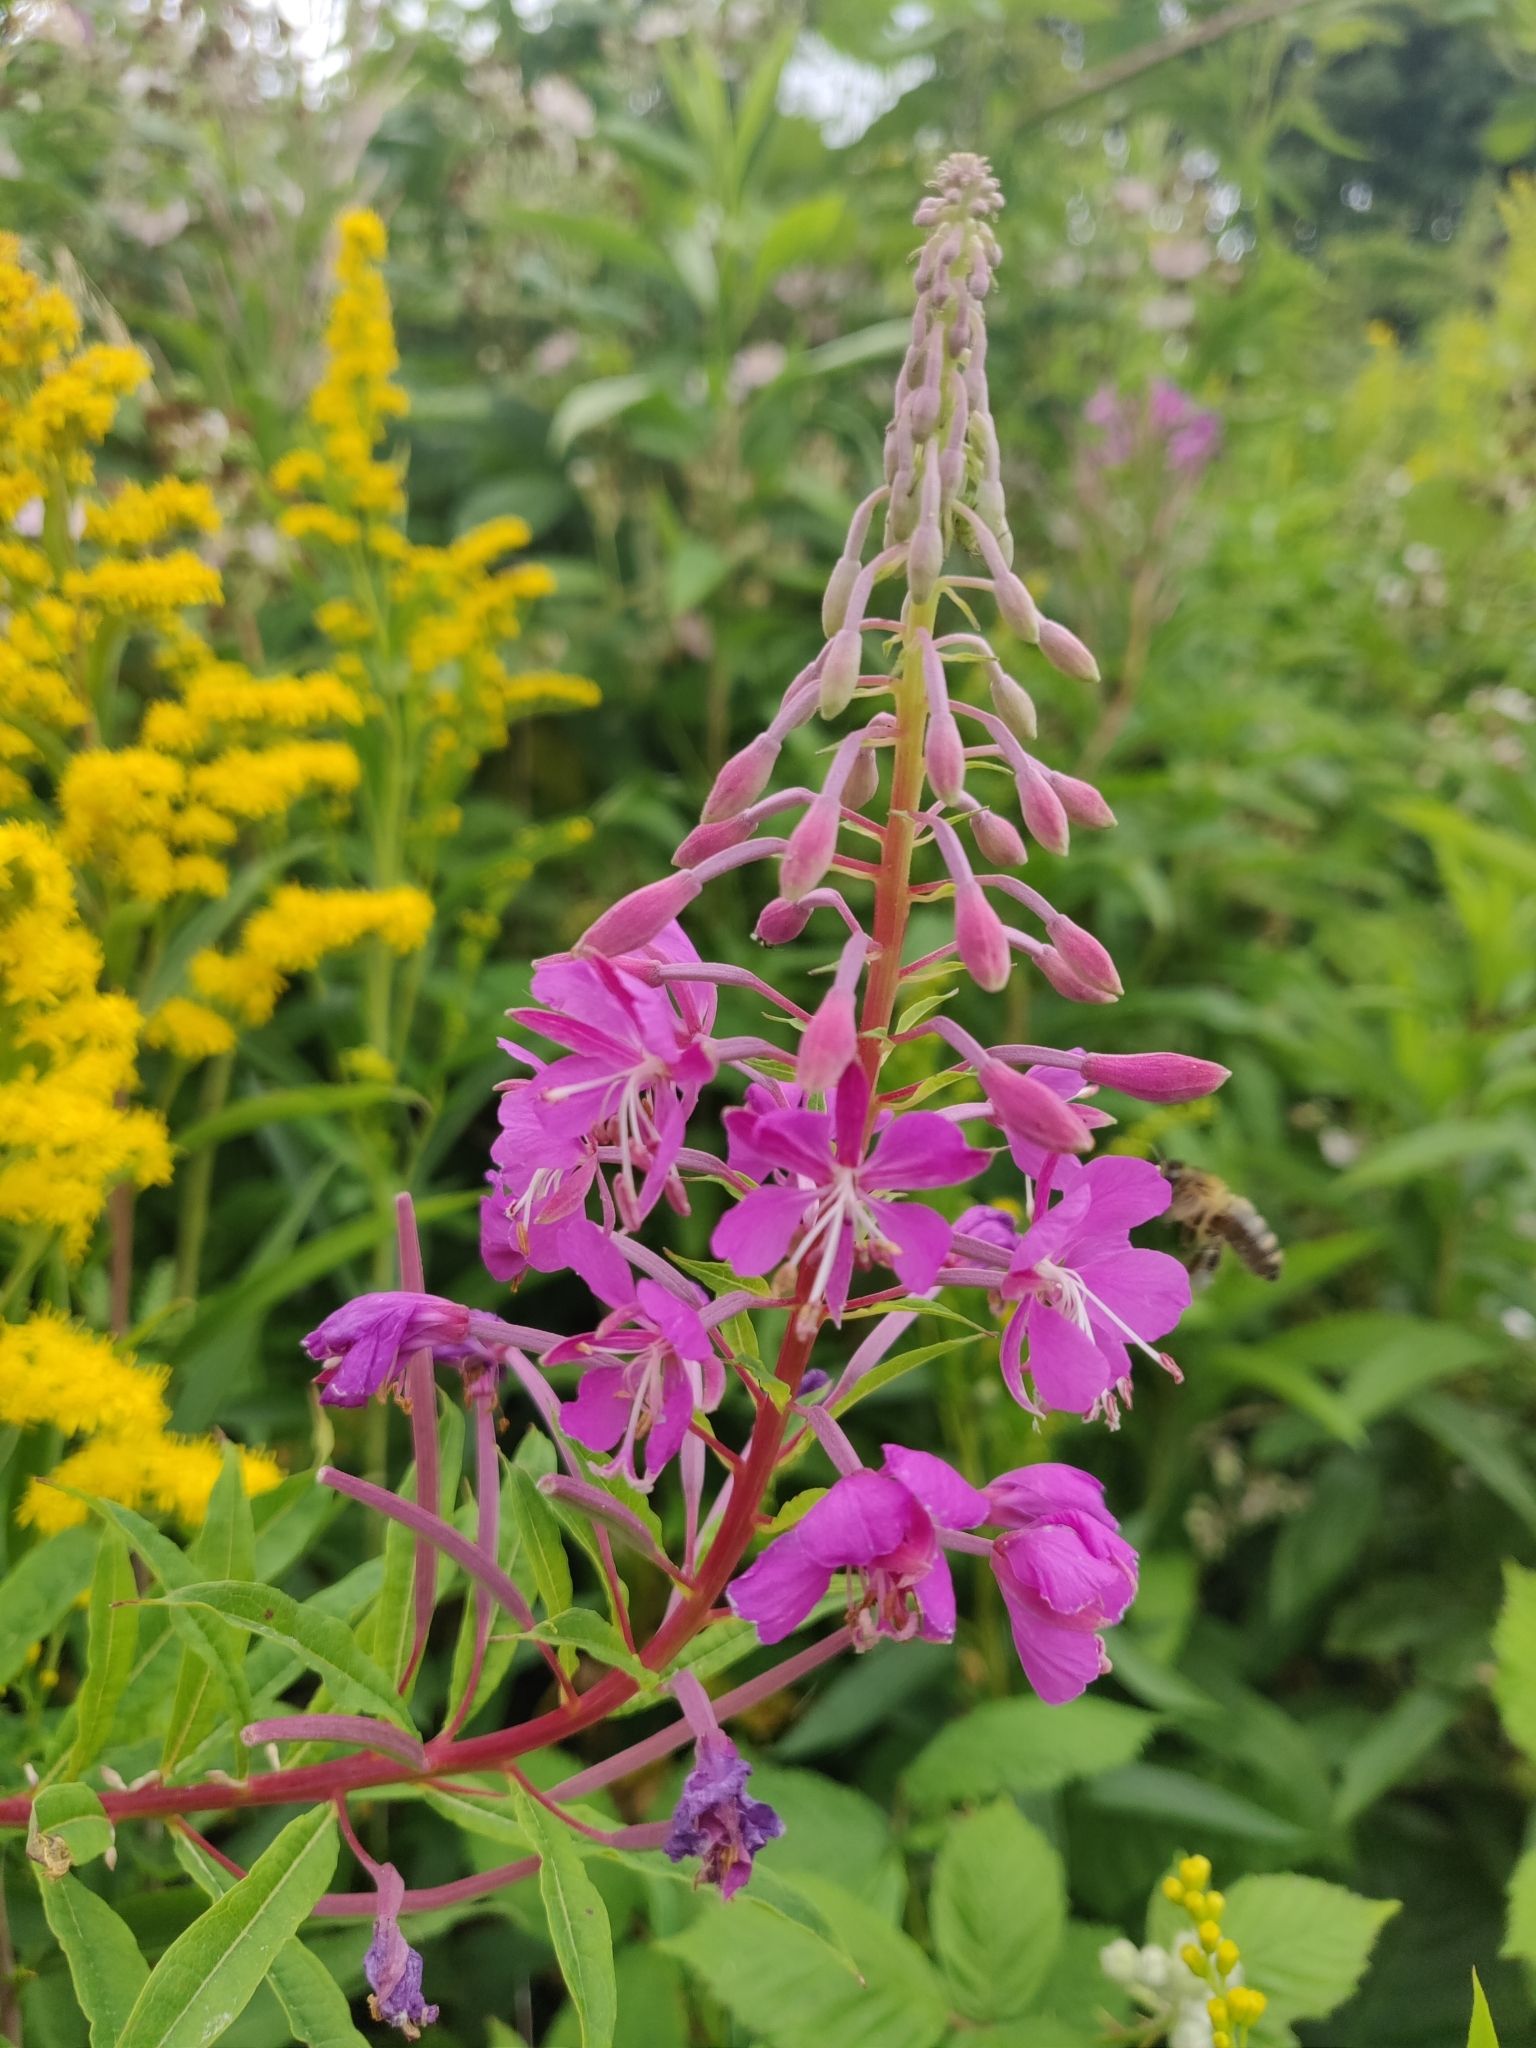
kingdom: Plantae
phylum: Tracheophyta
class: Magnoliopsida
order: Myrtales
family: Onagraceae
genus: Chamaenerion
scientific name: Chamaenerion angustifolium
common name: Fireweed
